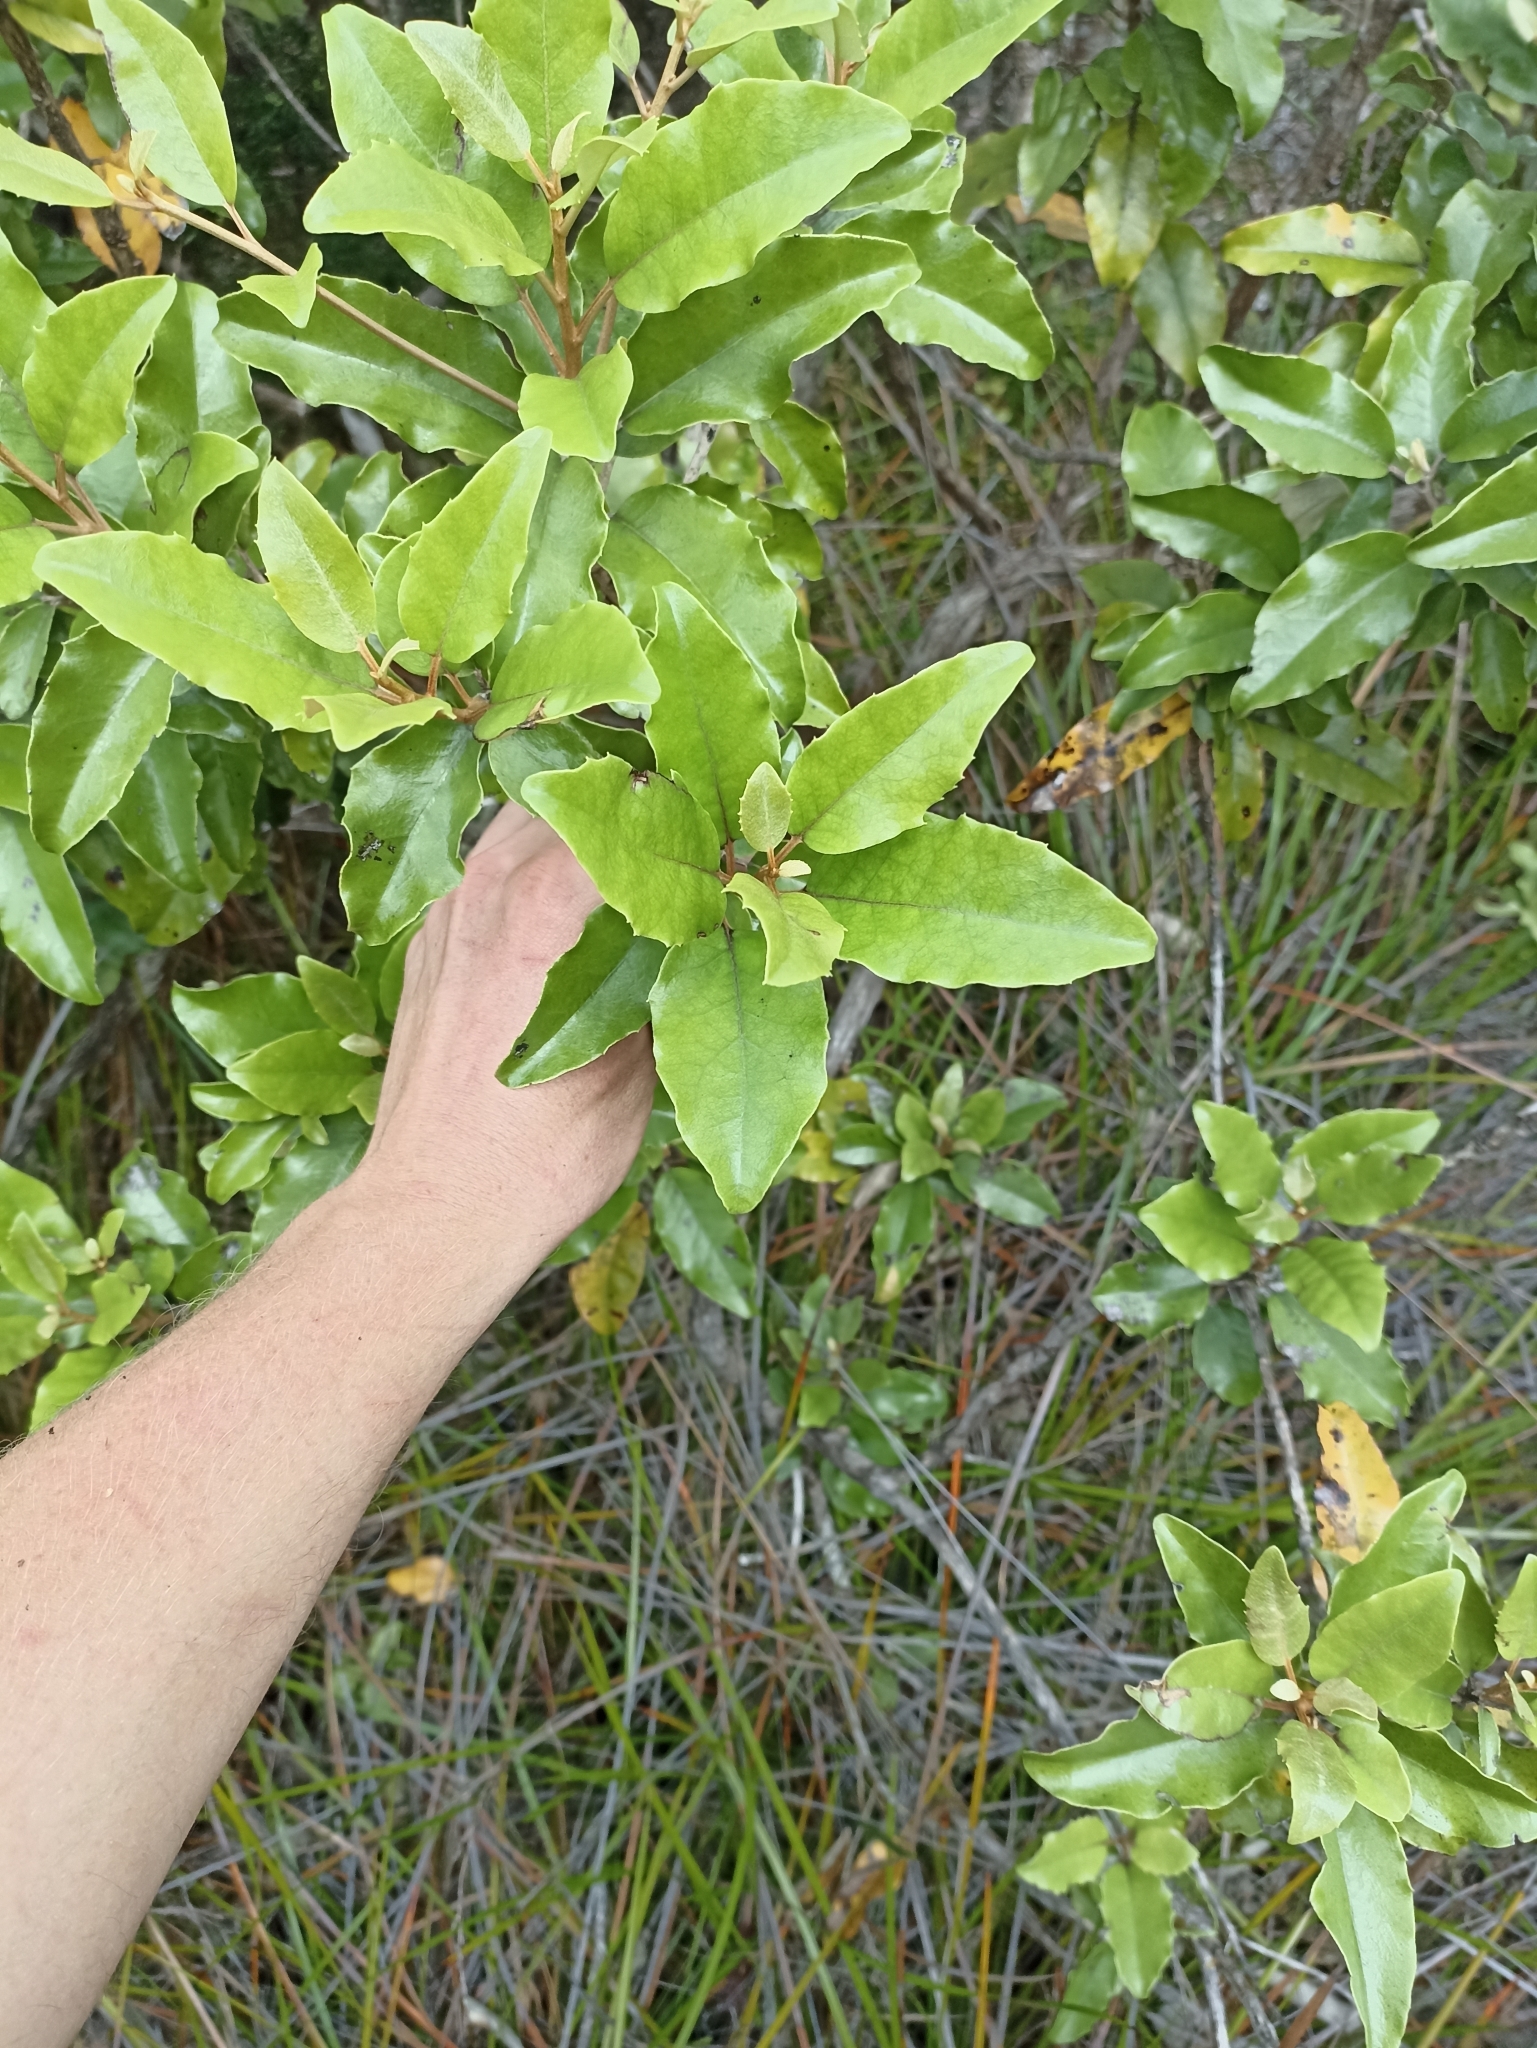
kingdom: Plantae
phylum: Tracheophyta
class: Magnoliopsida
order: Asterales
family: Asteraceae
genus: Olearia
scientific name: Olearia furfuracea
